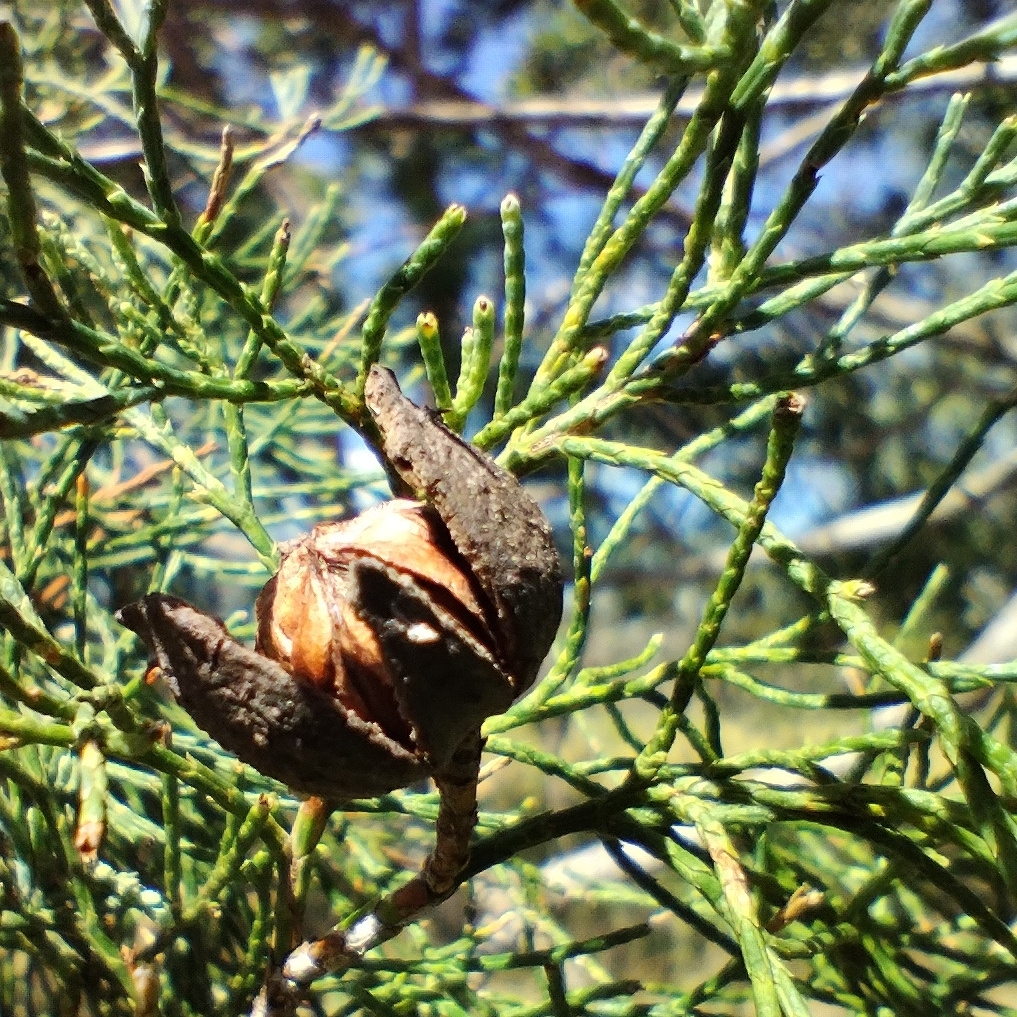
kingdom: Plantae
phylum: Tracheophyta
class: Pinopsida
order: Pinales
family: Cupressaceae
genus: Callitris
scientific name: Callitris columellaris
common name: White cypress-pine
